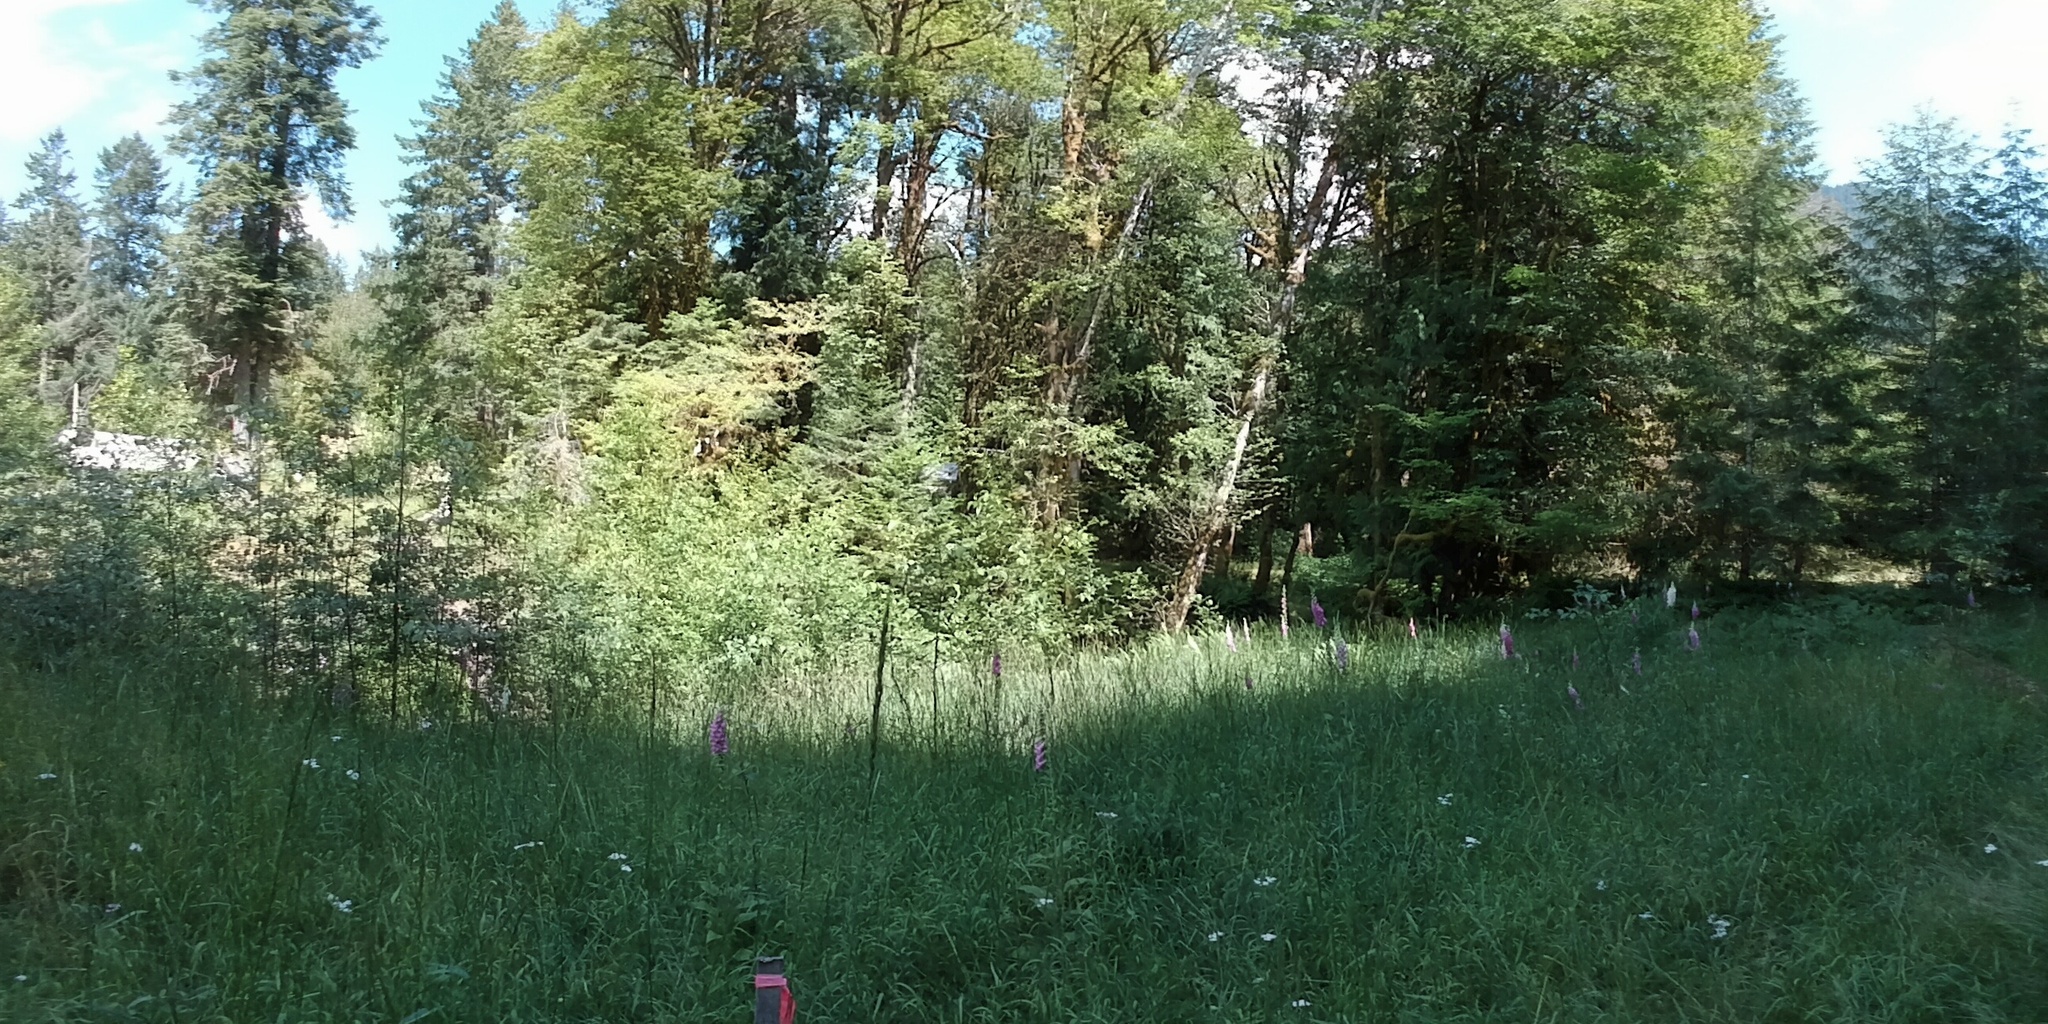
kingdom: Plantae
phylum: Tracheophyta
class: Magnoliopsida
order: Lamiales
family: Plantaginaceae
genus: Digitalis
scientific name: Digitalis purpurea
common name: Foxglove
